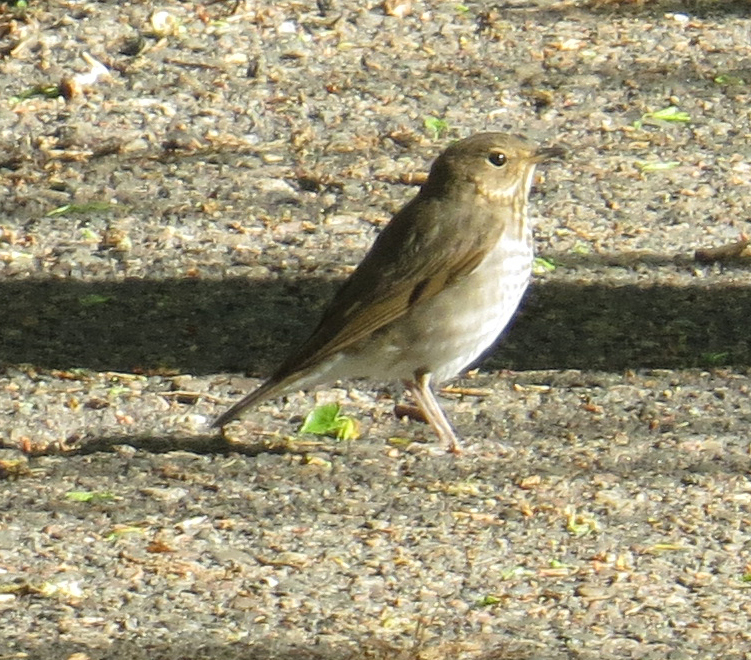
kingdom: Animalia
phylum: Chordata
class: Aves
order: Passeriformes
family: Turdidae
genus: Catharus
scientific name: Catharus ustulatus
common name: Swainson's thrush
